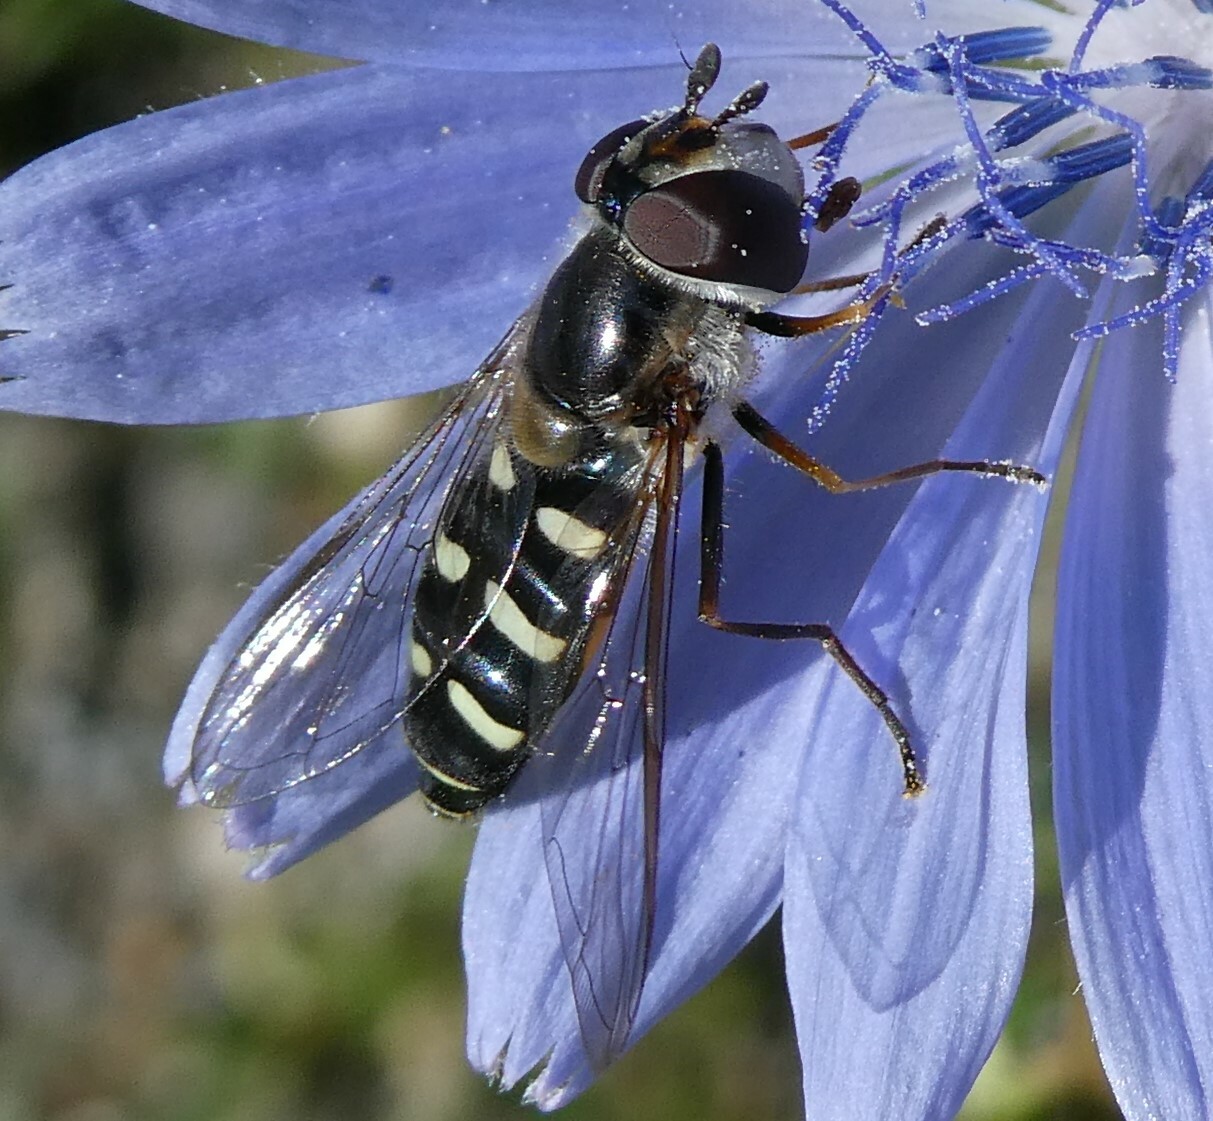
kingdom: Animalia
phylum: Arthropoda
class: Insecta
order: Diptera
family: Syrphidae
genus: Eupeodes
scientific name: Eupeodes perplexus
